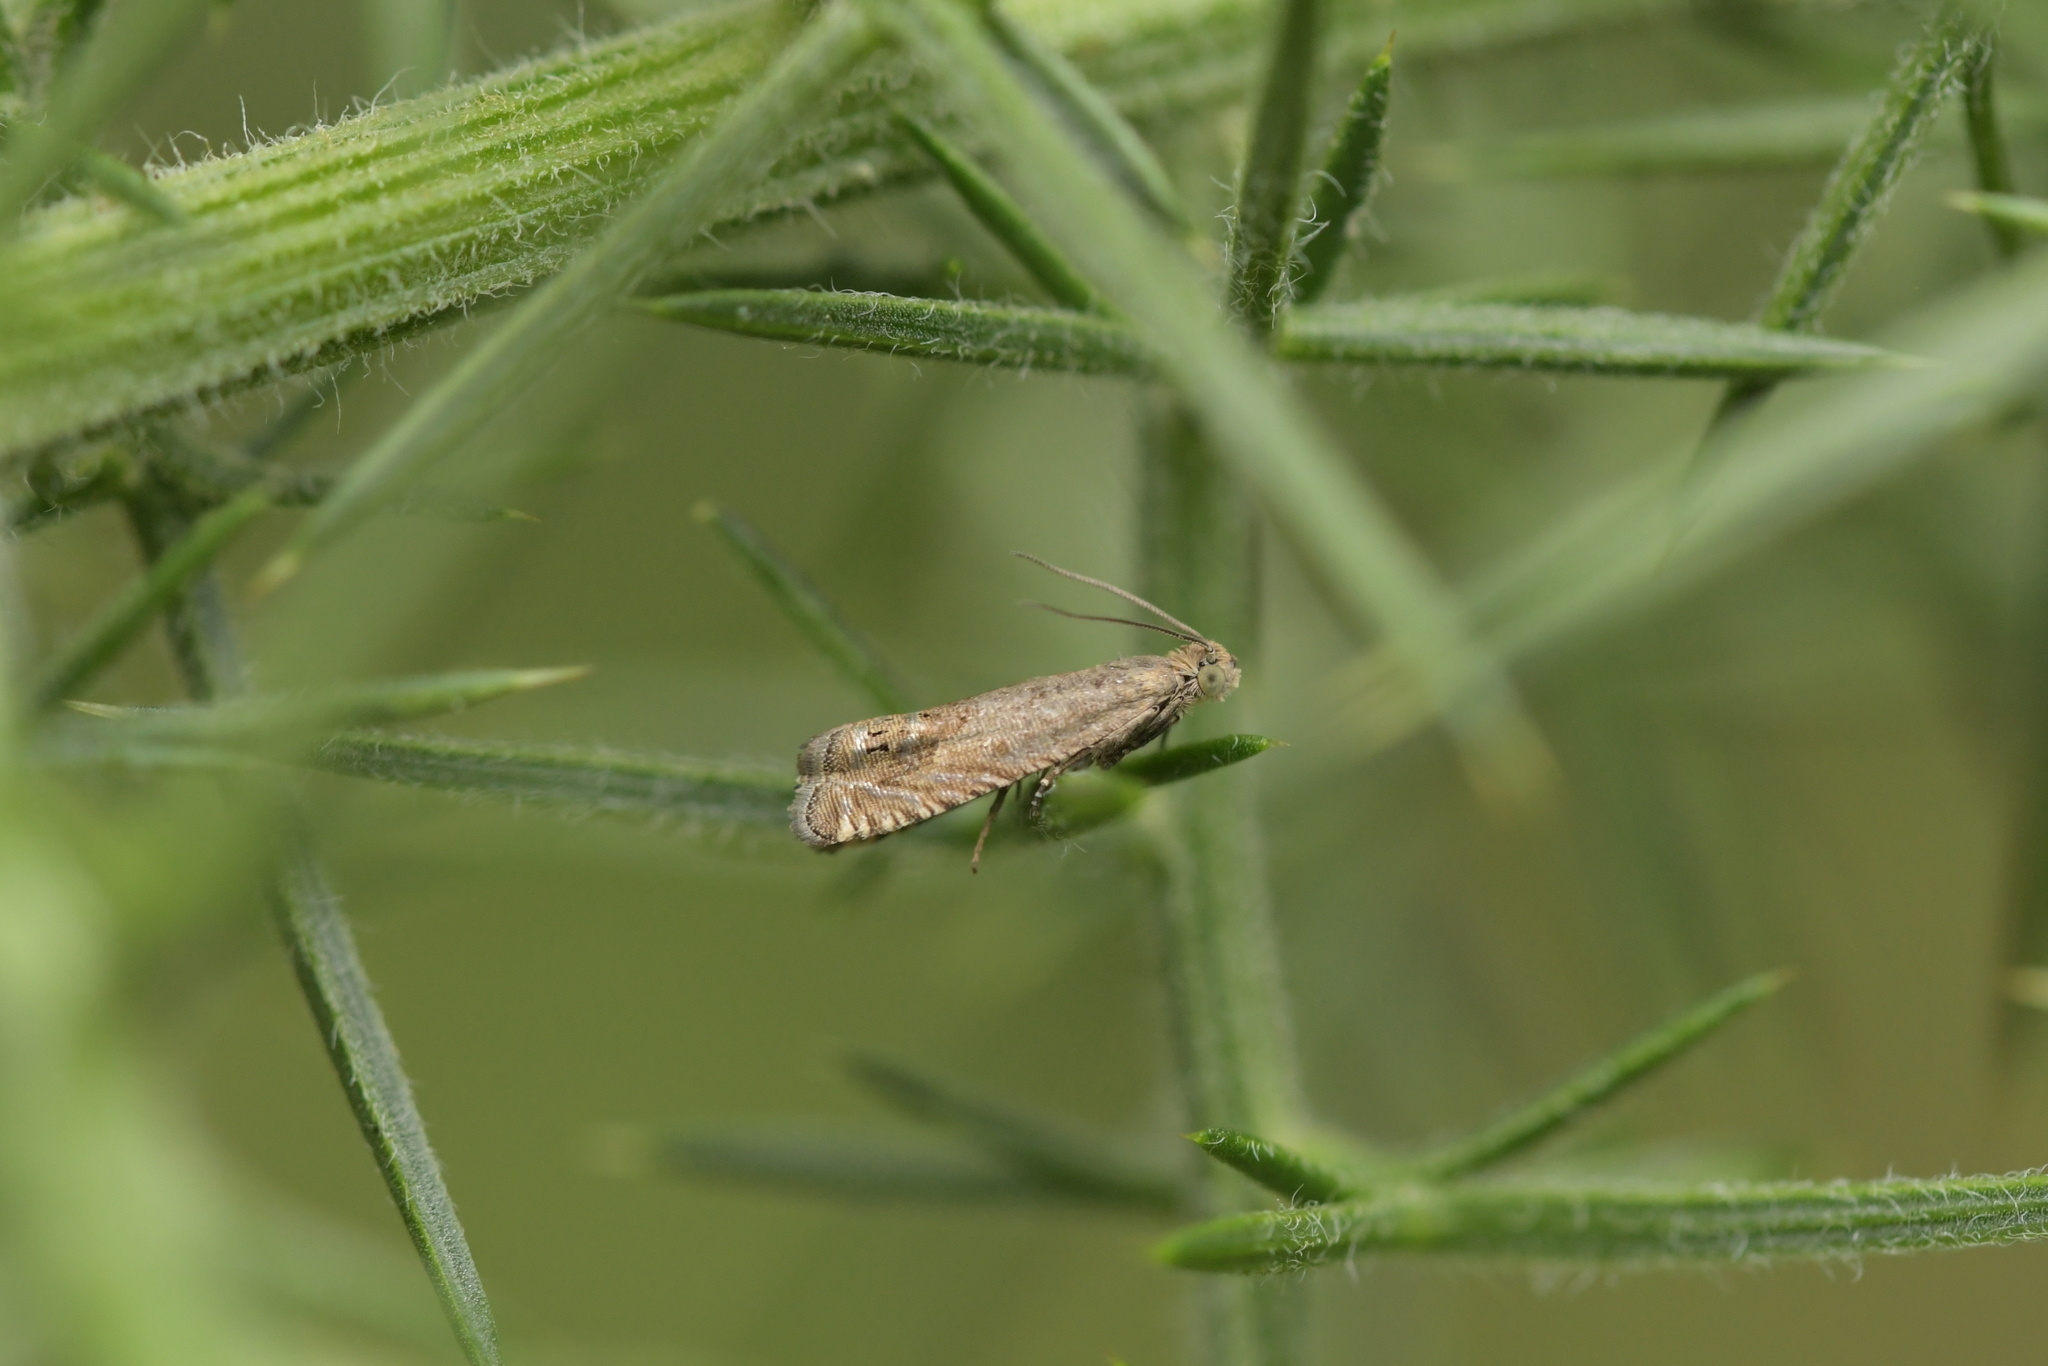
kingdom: Animalia
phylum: Arthropoda
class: Insecta
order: Lepidoptera
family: Tortricidae
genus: Cydia
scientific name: Cydia succedana
